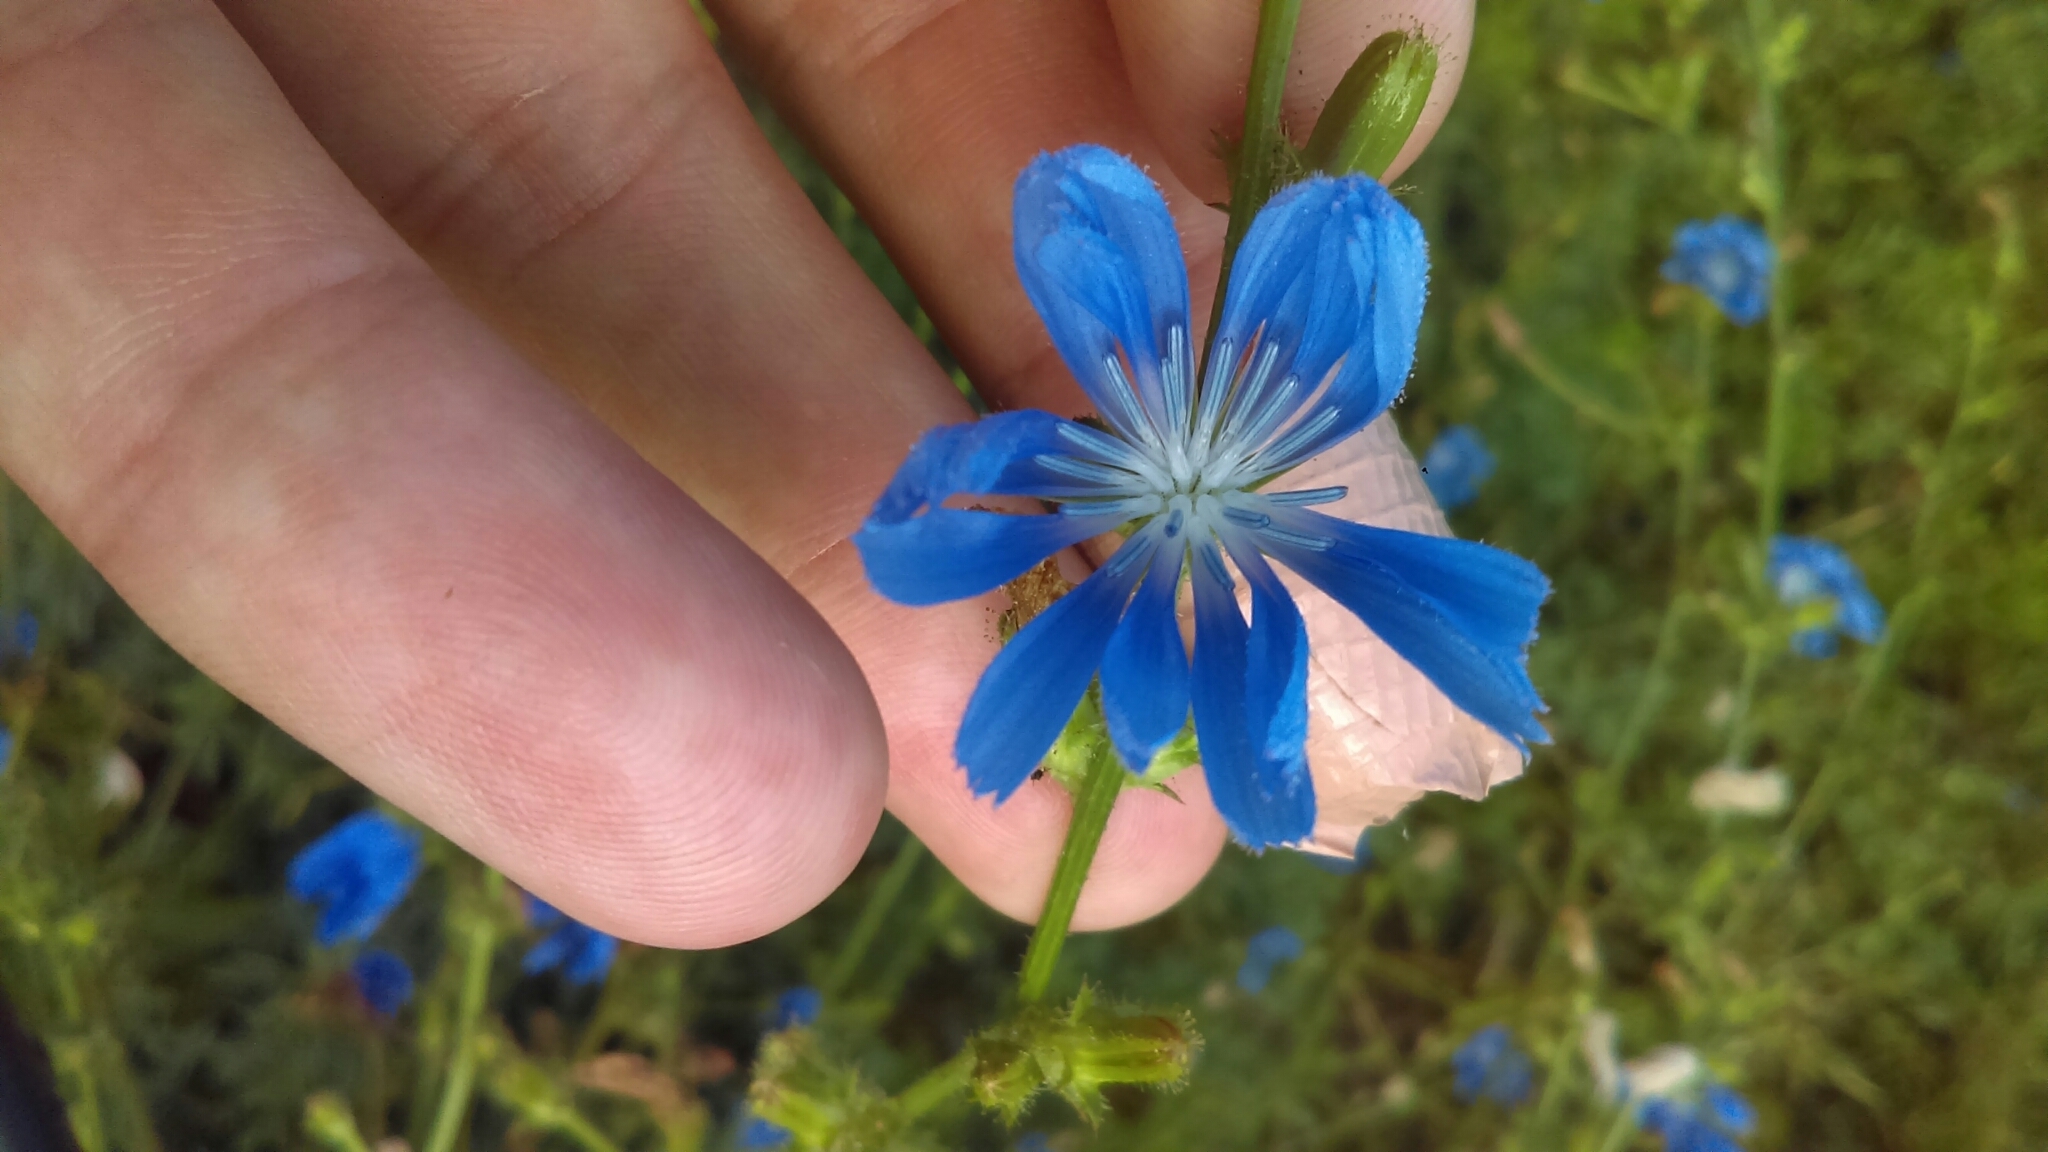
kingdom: Plantae
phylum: Tracheophyta
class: Magnoliopsida
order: Asterales
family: Asteraceae
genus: Cichorium
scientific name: Cichorium intybus
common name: Chicory
